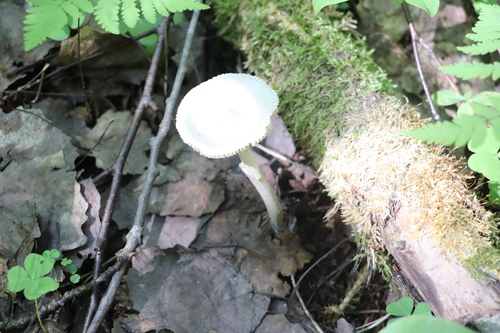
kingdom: Fungi
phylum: Basidiomycota
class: Agaricomycetes
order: Agaricales
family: Amanitaceae
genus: Amanita
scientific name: Amanita
